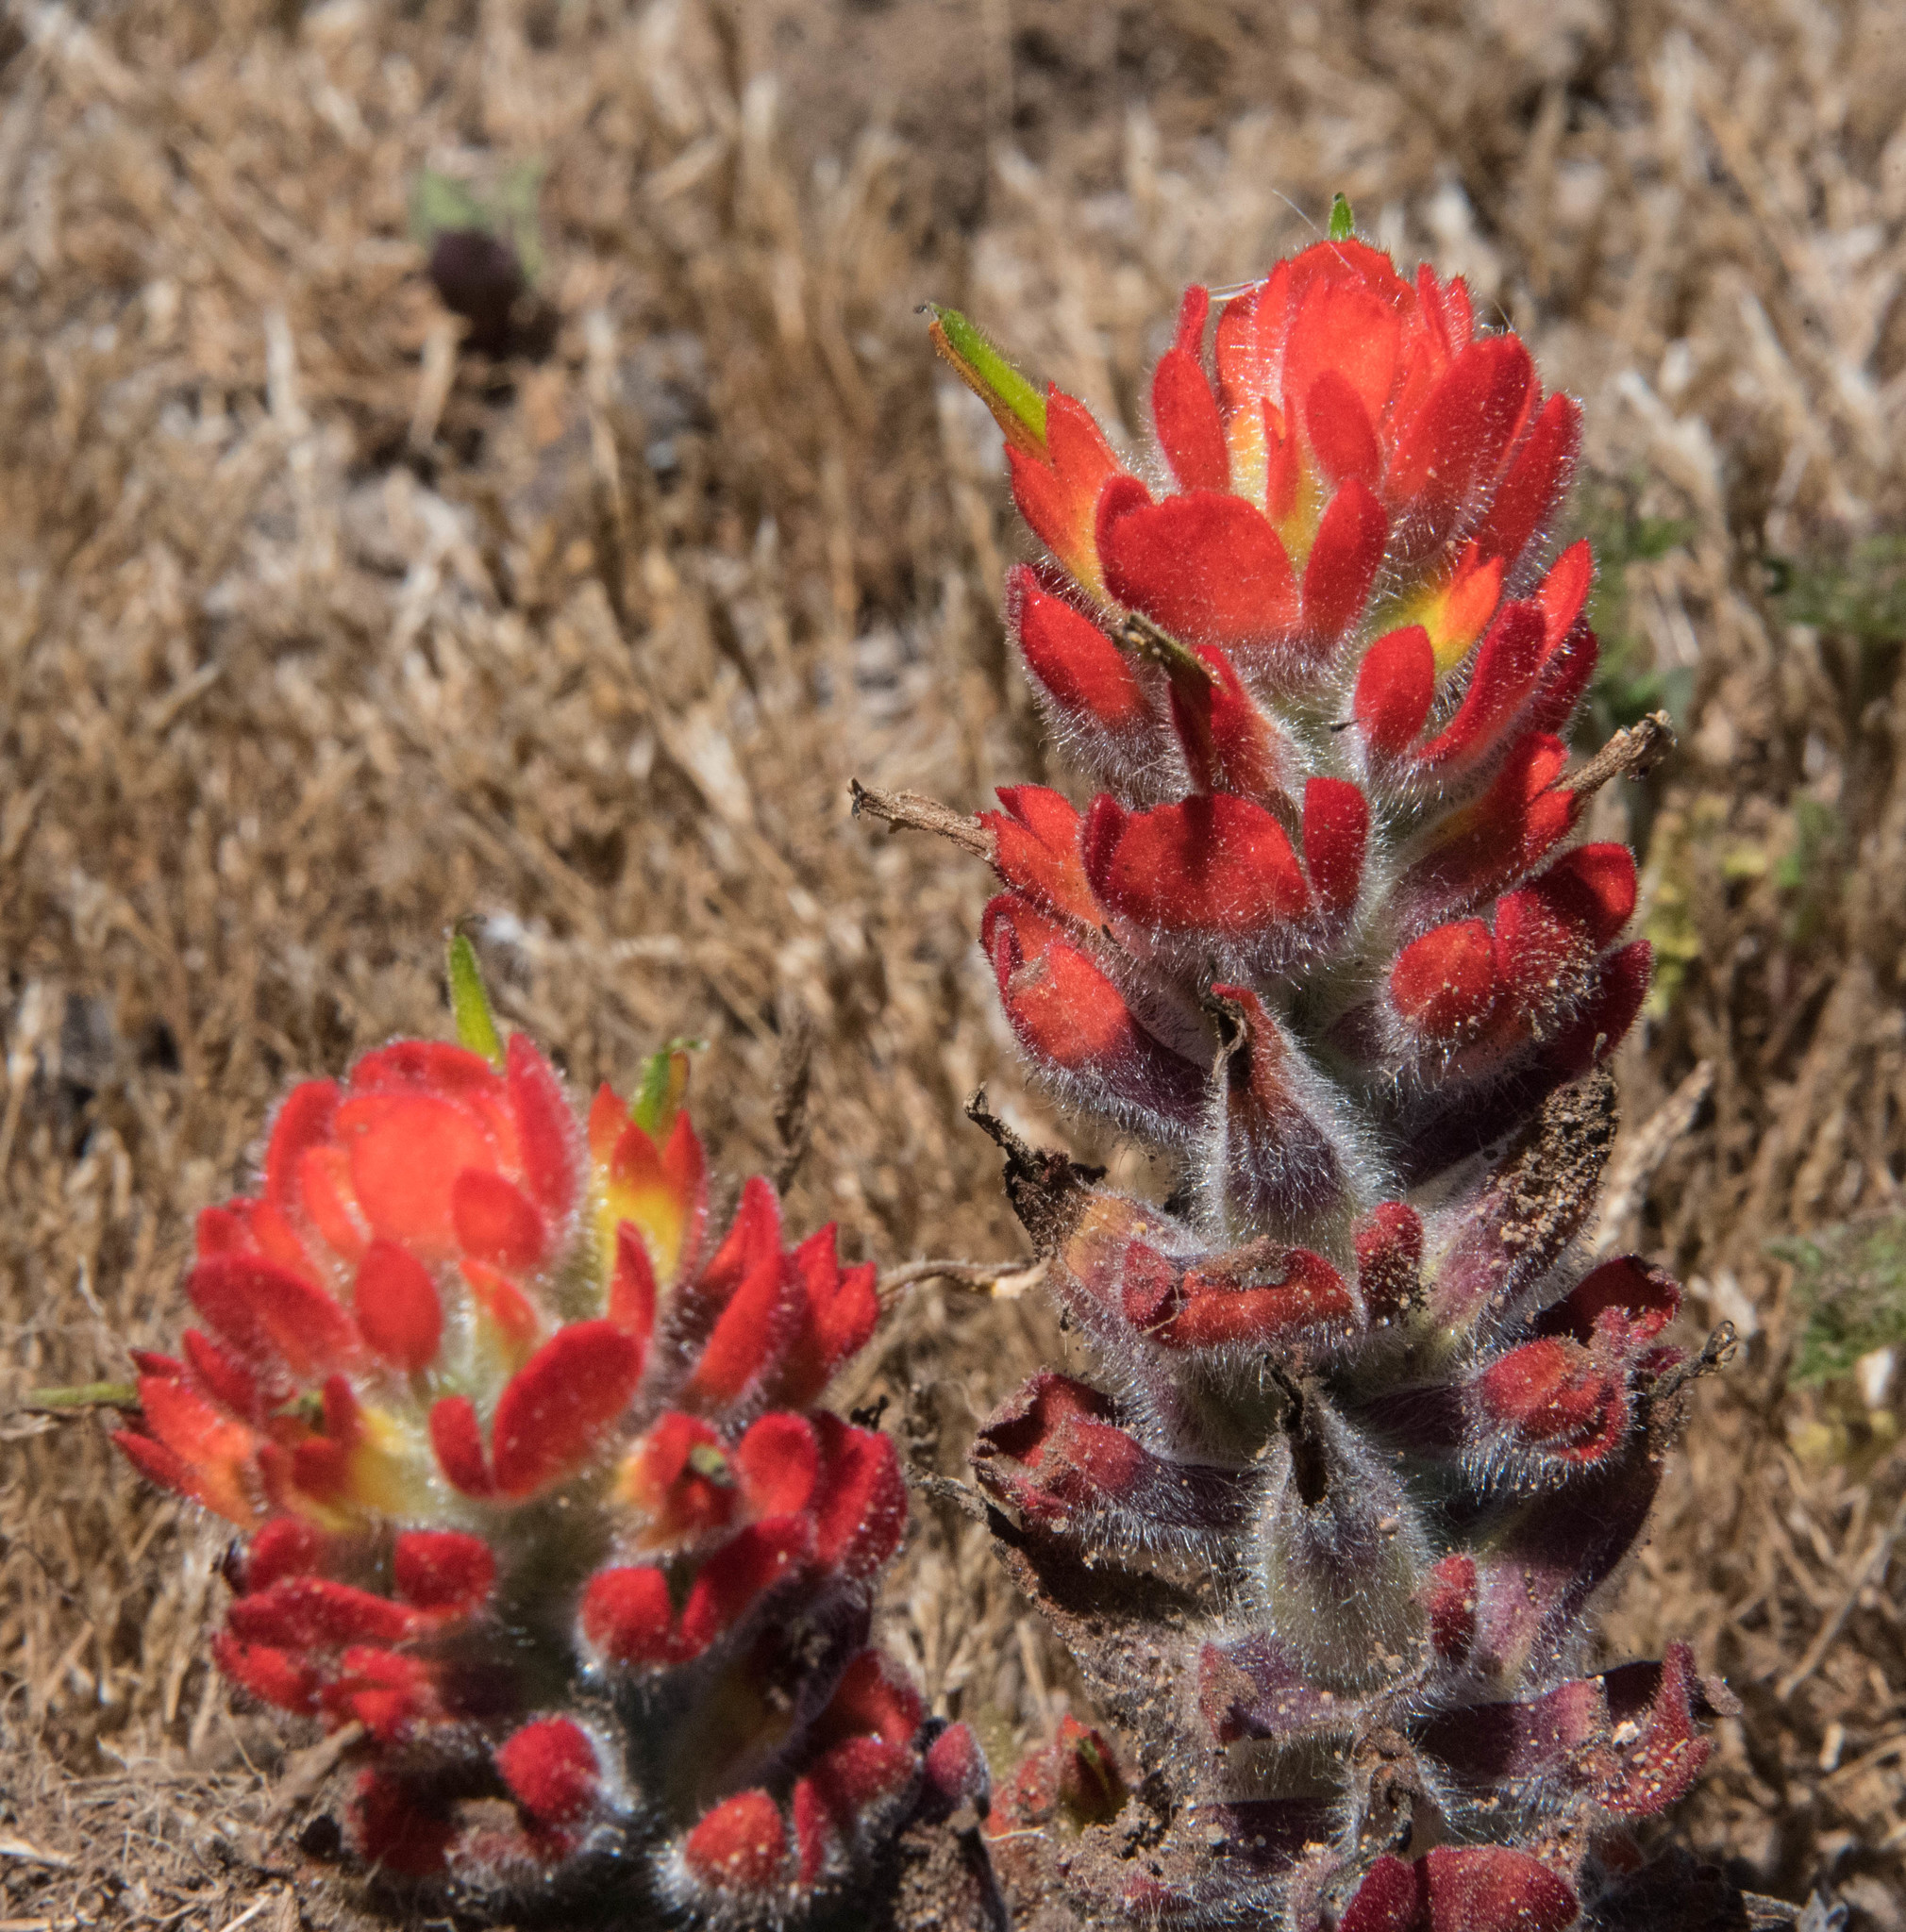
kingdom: Plantae
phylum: Tracheophyta
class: Magnoliopsida
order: Lamiales
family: Orobanchaceae
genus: Castilleja
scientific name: Castilleja mendocinensis
